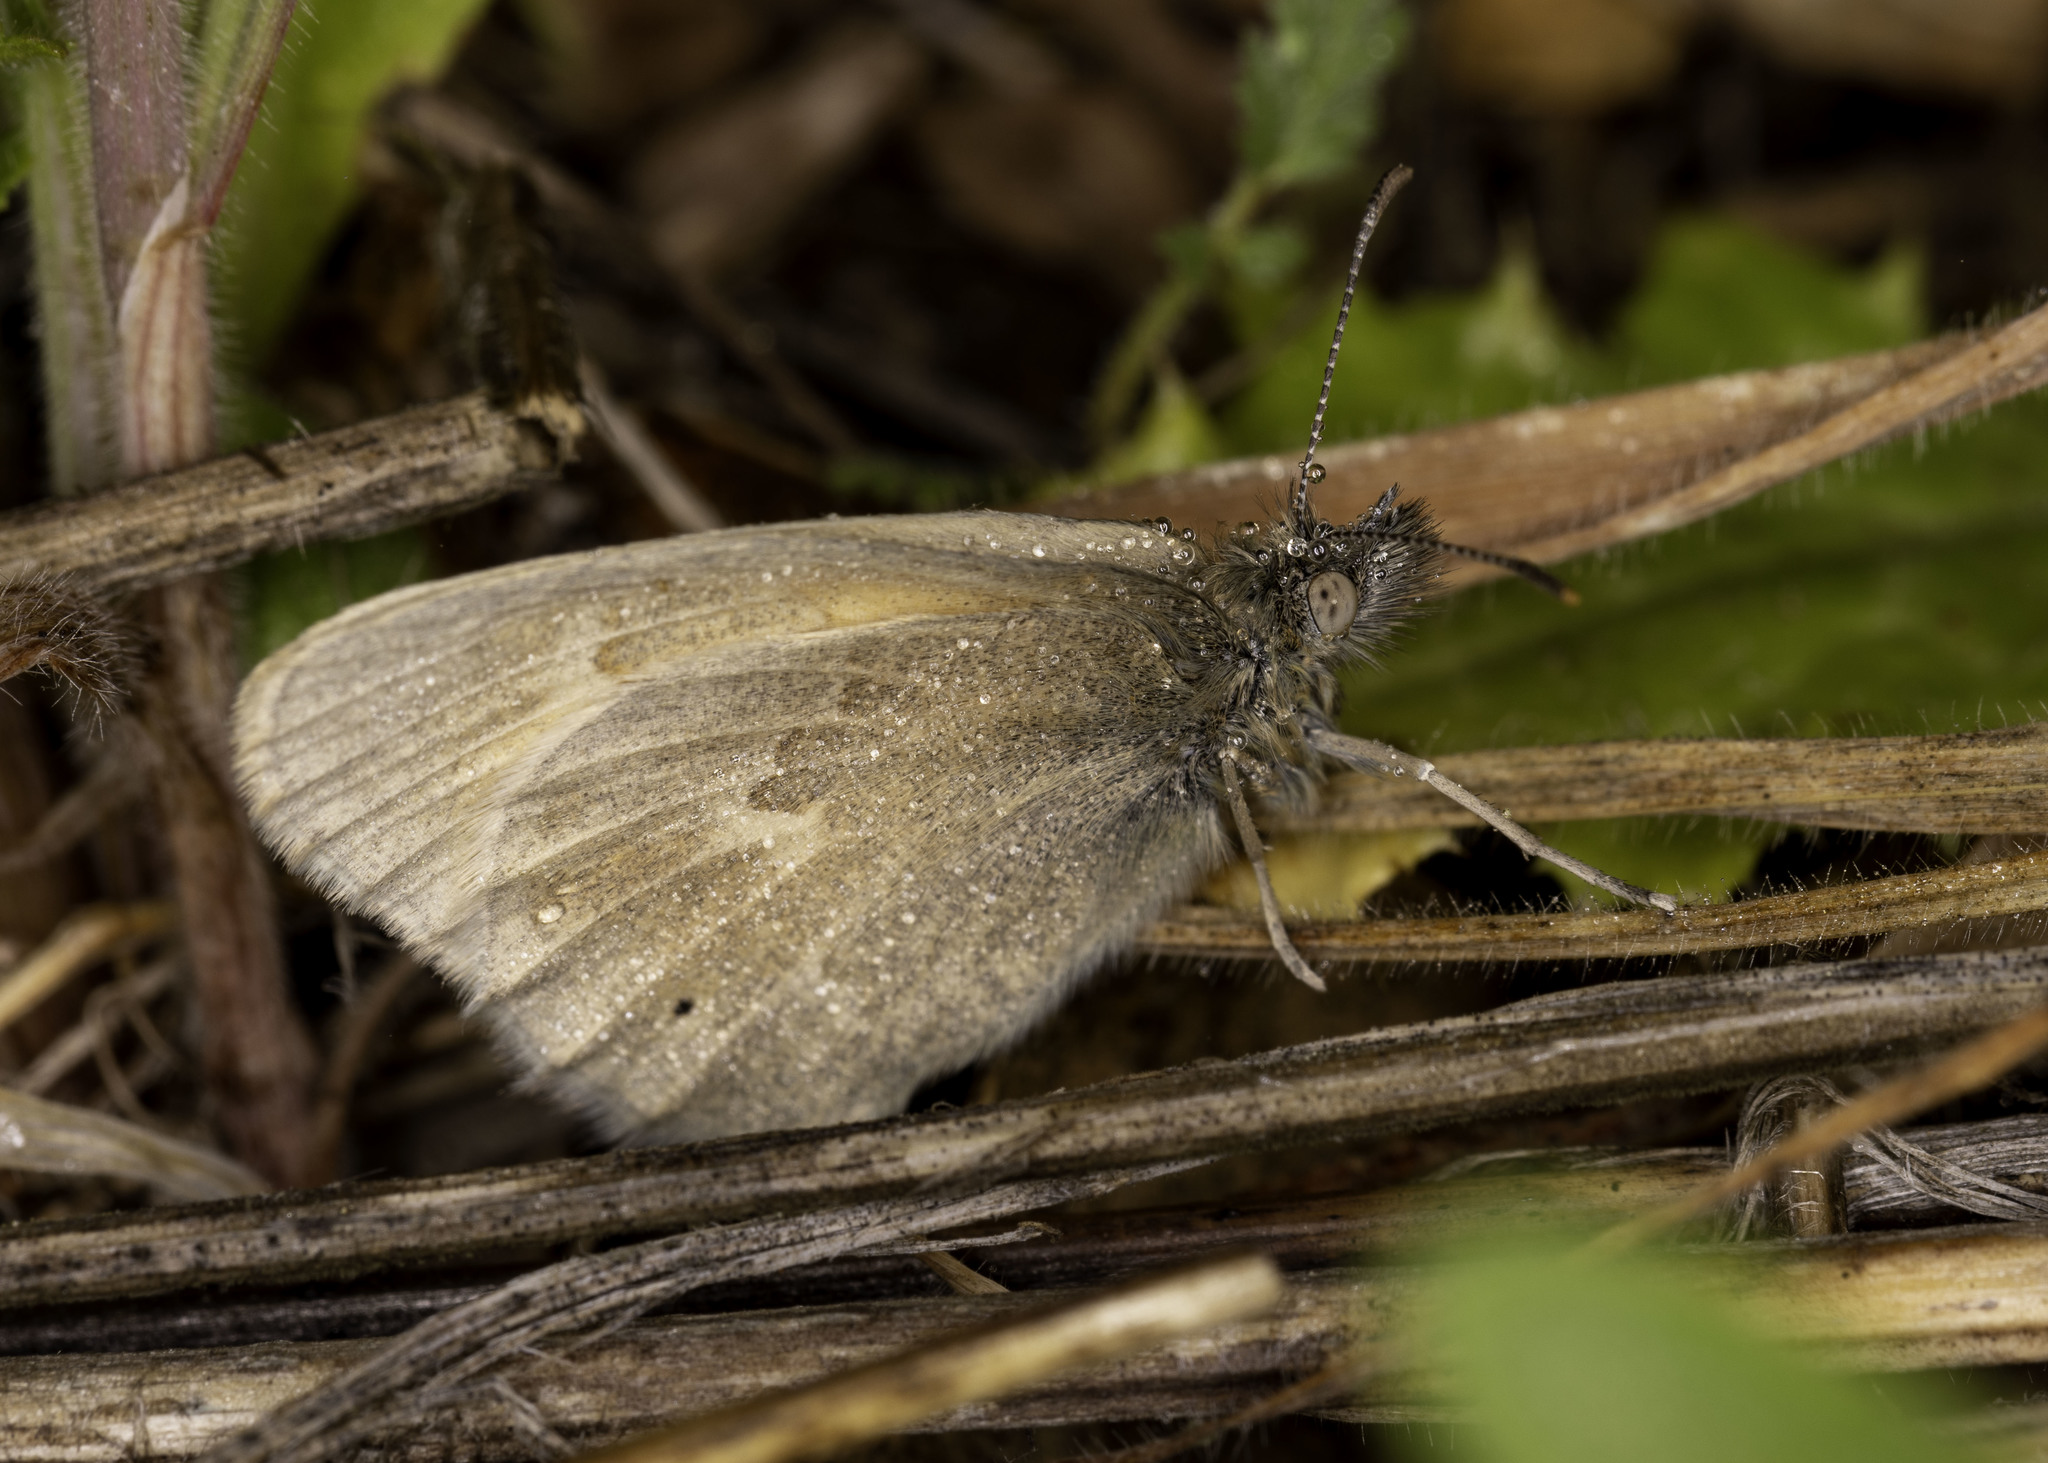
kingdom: Animalia
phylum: Arthropoda
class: Insecta
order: Lepidoptera
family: Nymphalidae
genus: Coenonympha
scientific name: Coenonympha california
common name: Common ringlet
